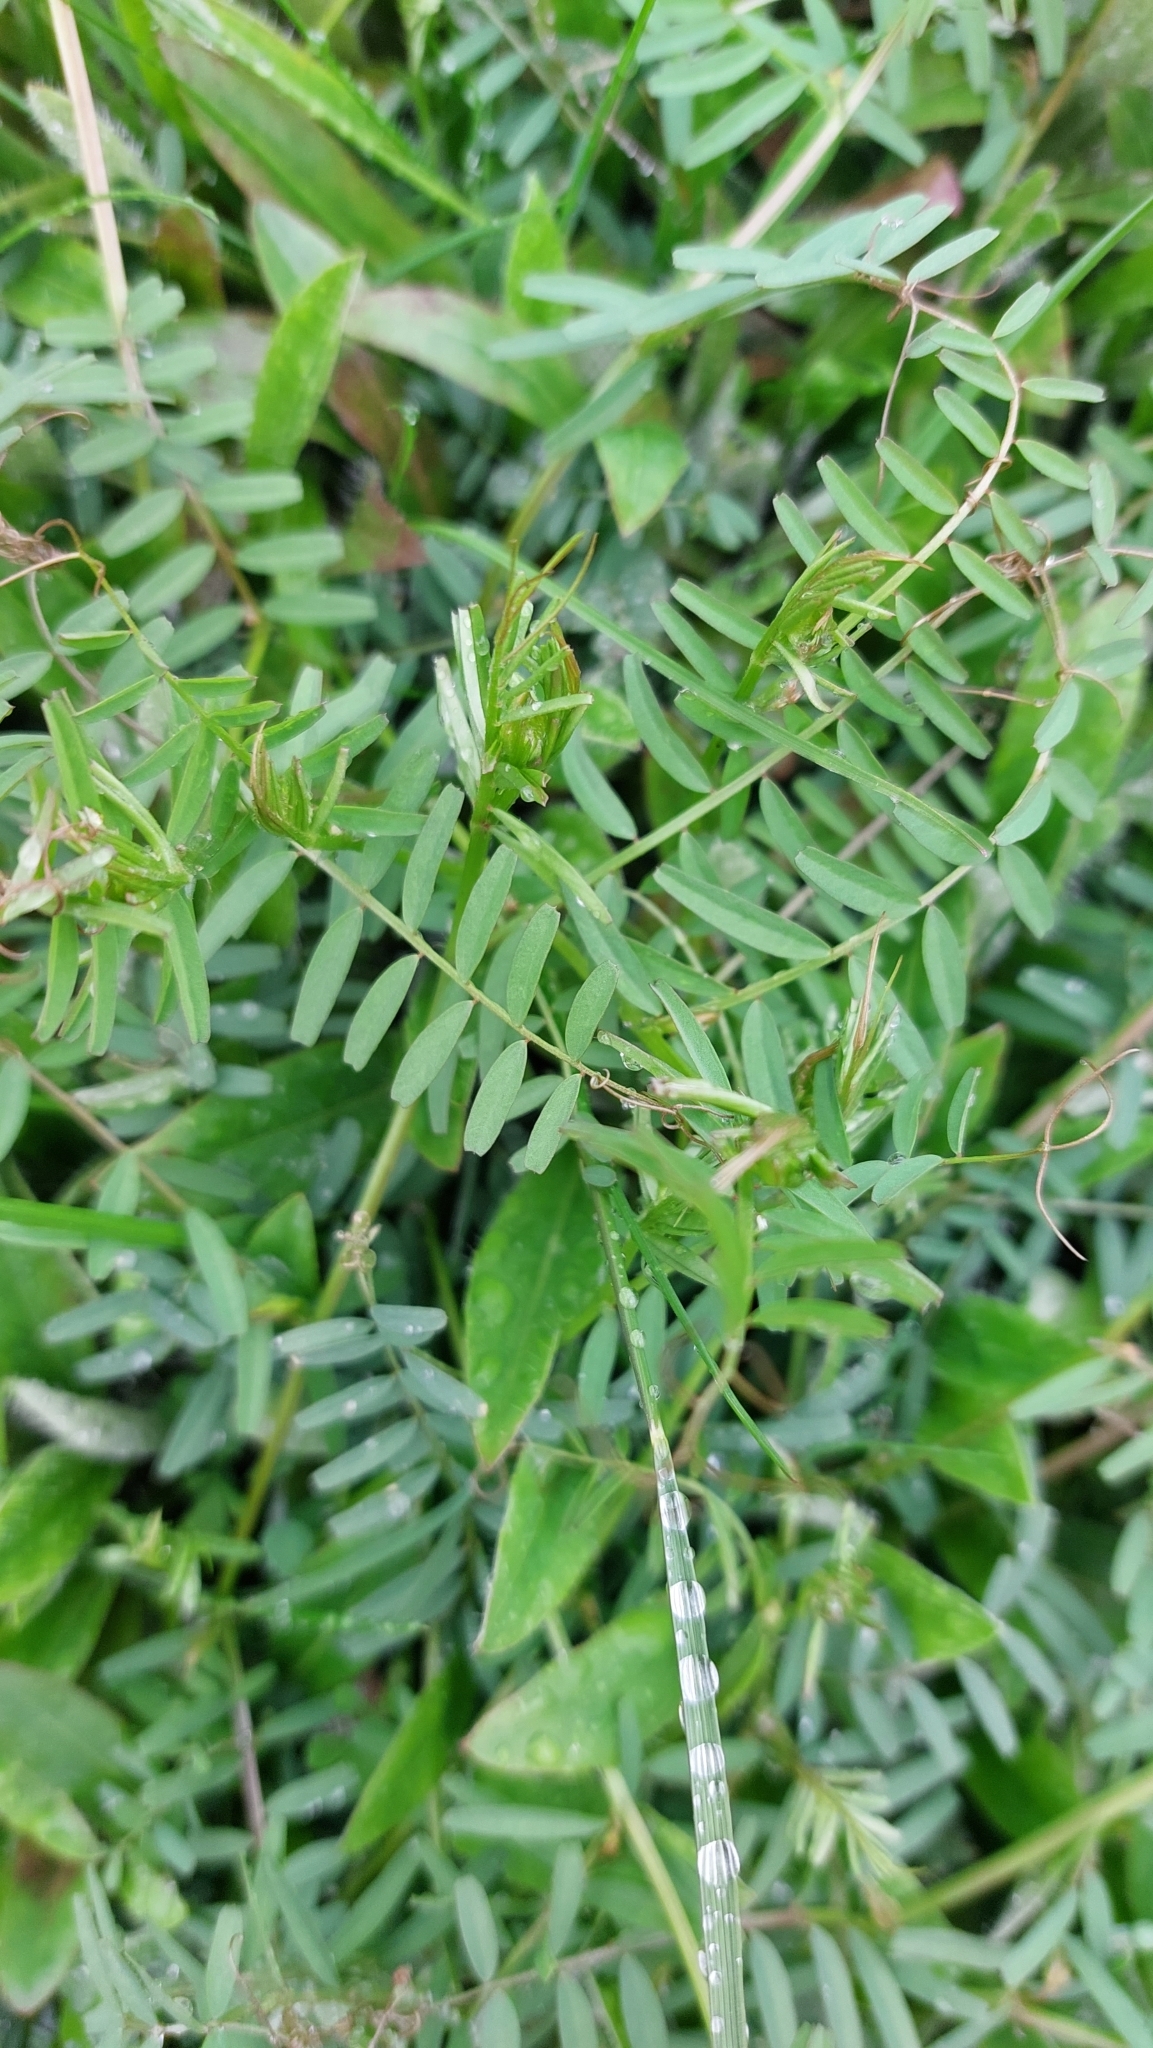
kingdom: Plantae
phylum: Tracheophyta
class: Magnoliopsida
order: Fabales
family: Fabaceae
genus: Vicia
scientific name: Vicia hirsuta
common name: Tiny vetch
